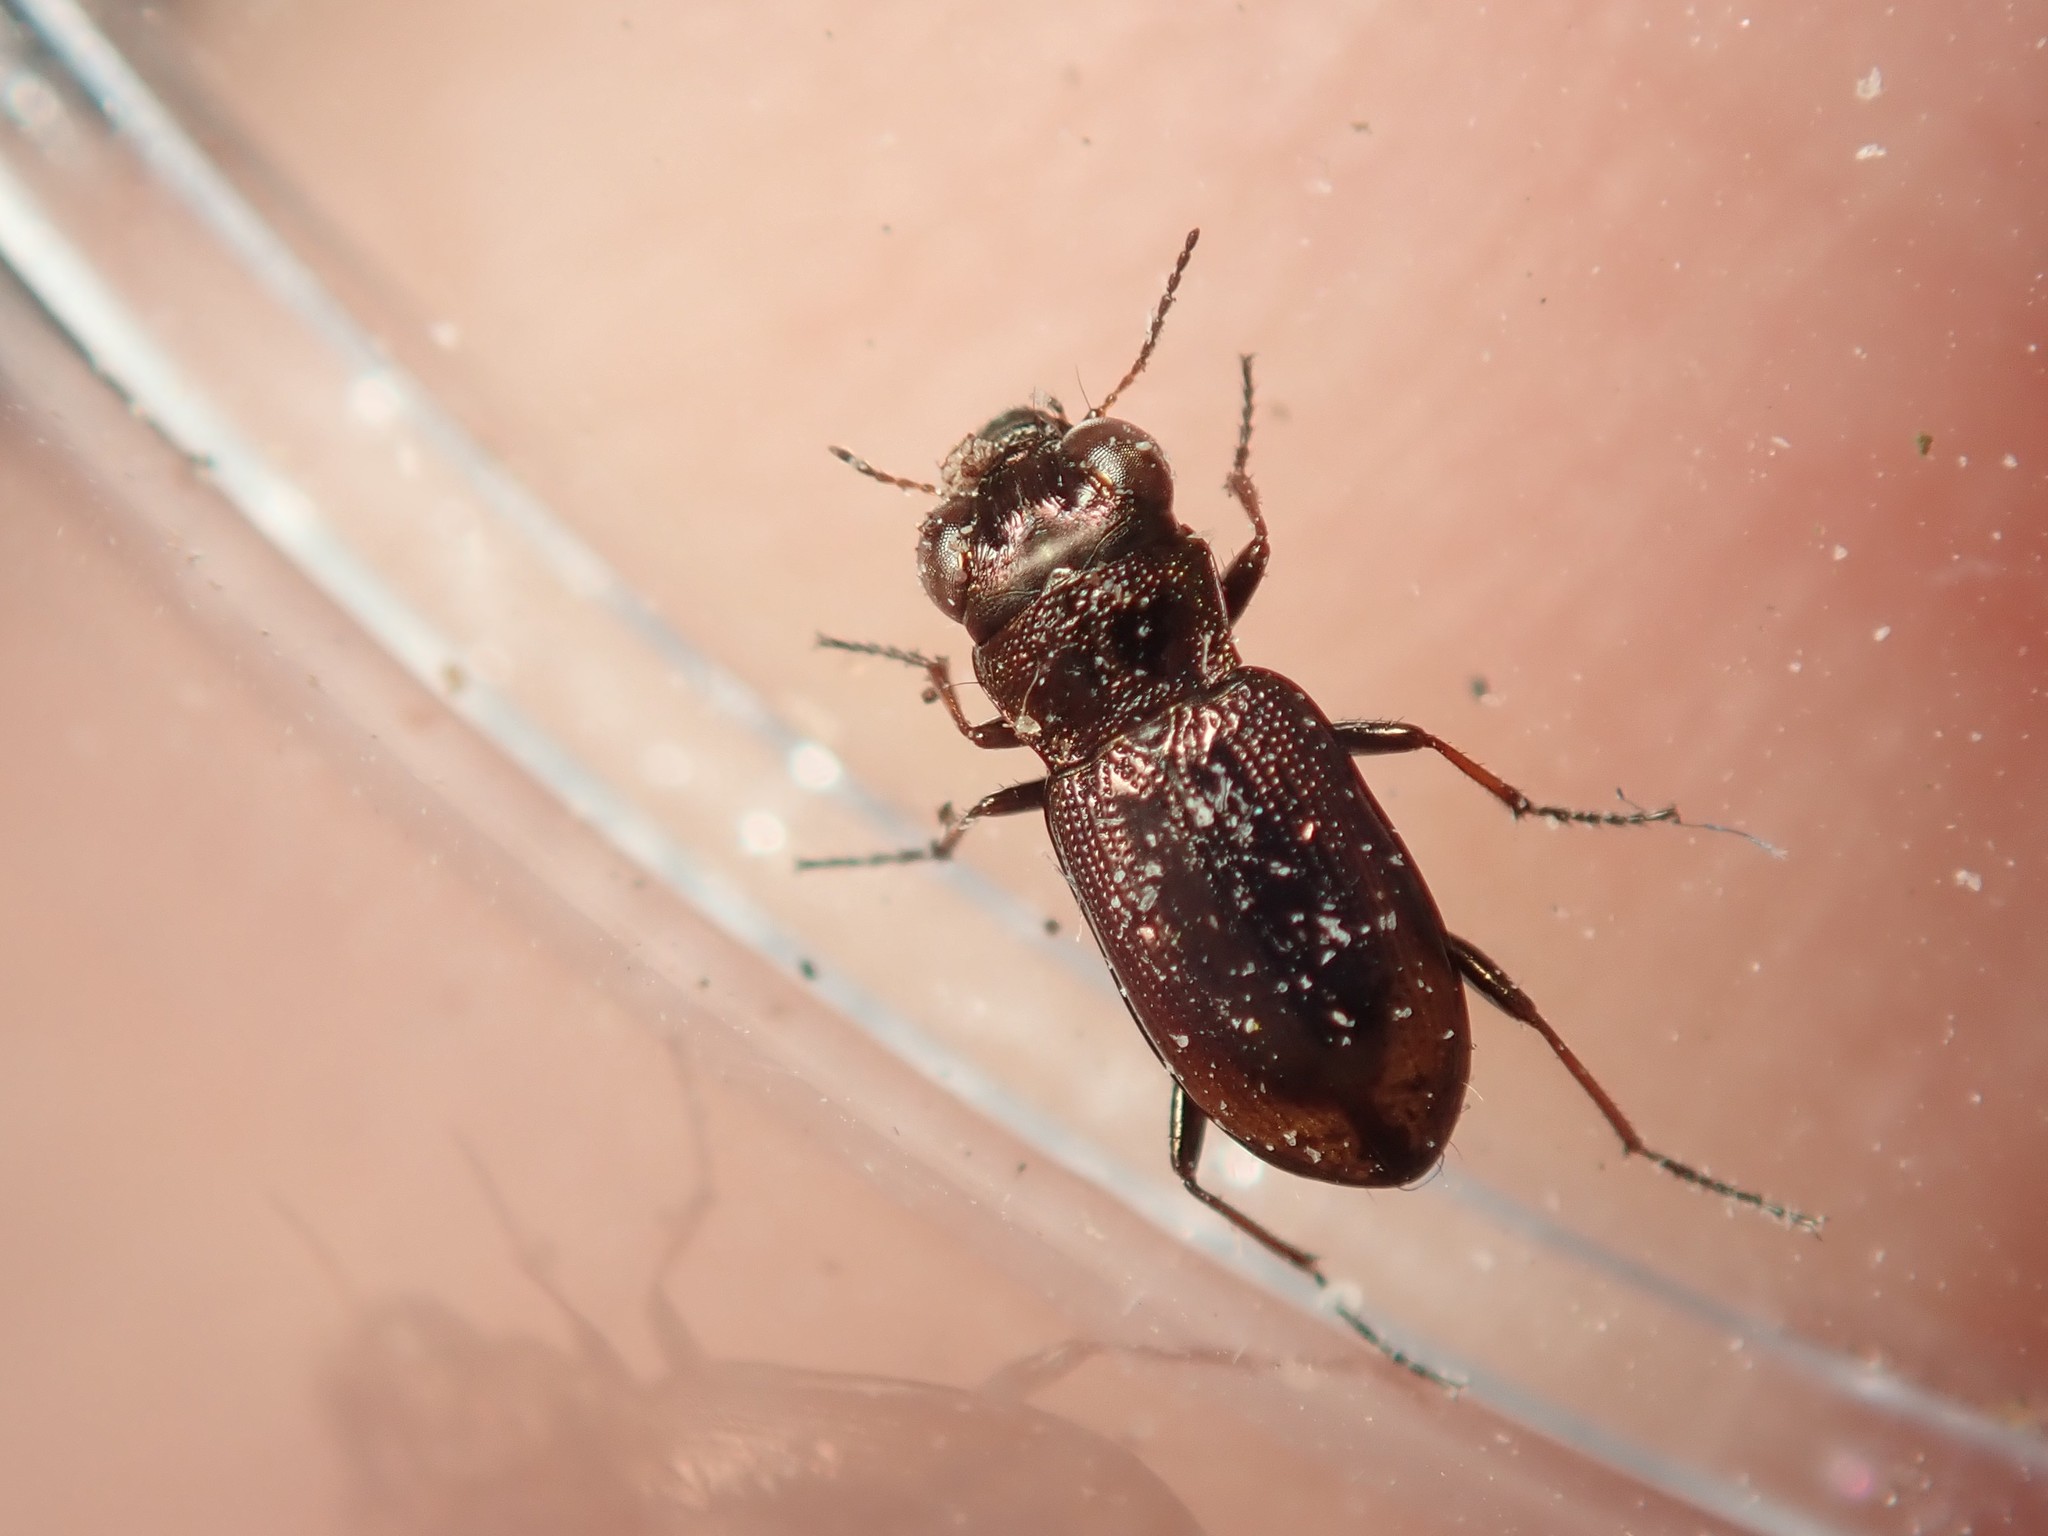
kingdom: Animalia
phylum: Arthropoda
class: Insecta
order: Coleoptera
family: Carabidae
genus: Notiophilus
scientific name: Notiophilus biguttatus
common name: Spotted gazelle beetle
